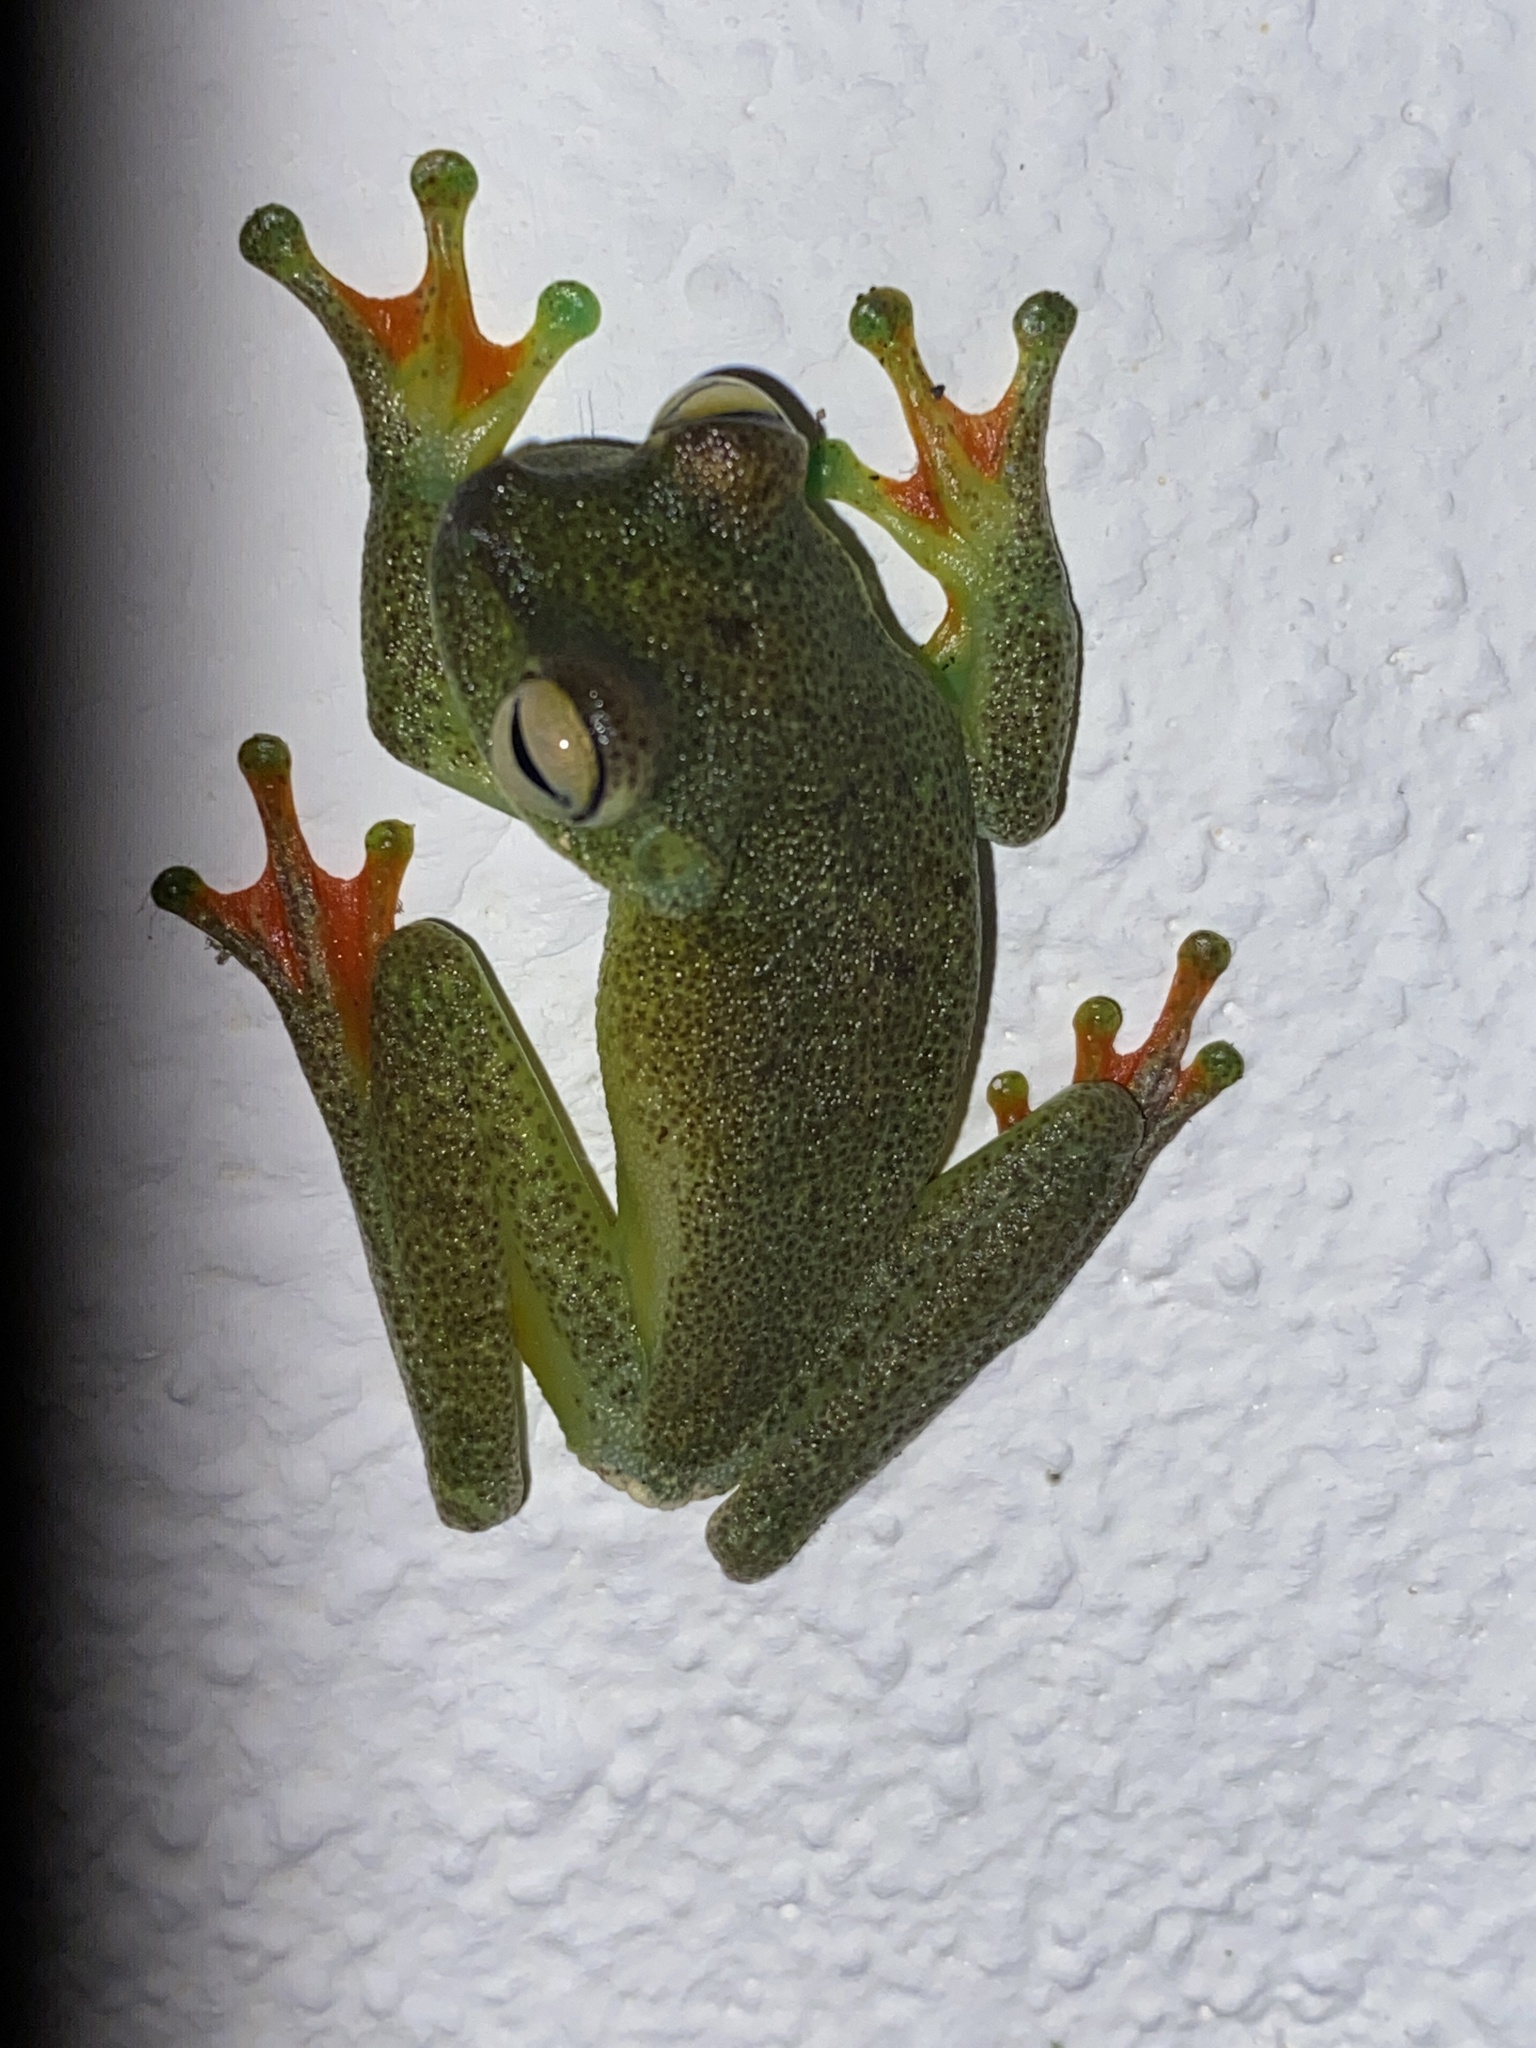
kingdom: Animalia
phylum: Chordata
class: Amphibia
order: Anura
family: Hylidae
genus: Boana
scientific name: Boana rufitela
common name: Canal zone treefrog
